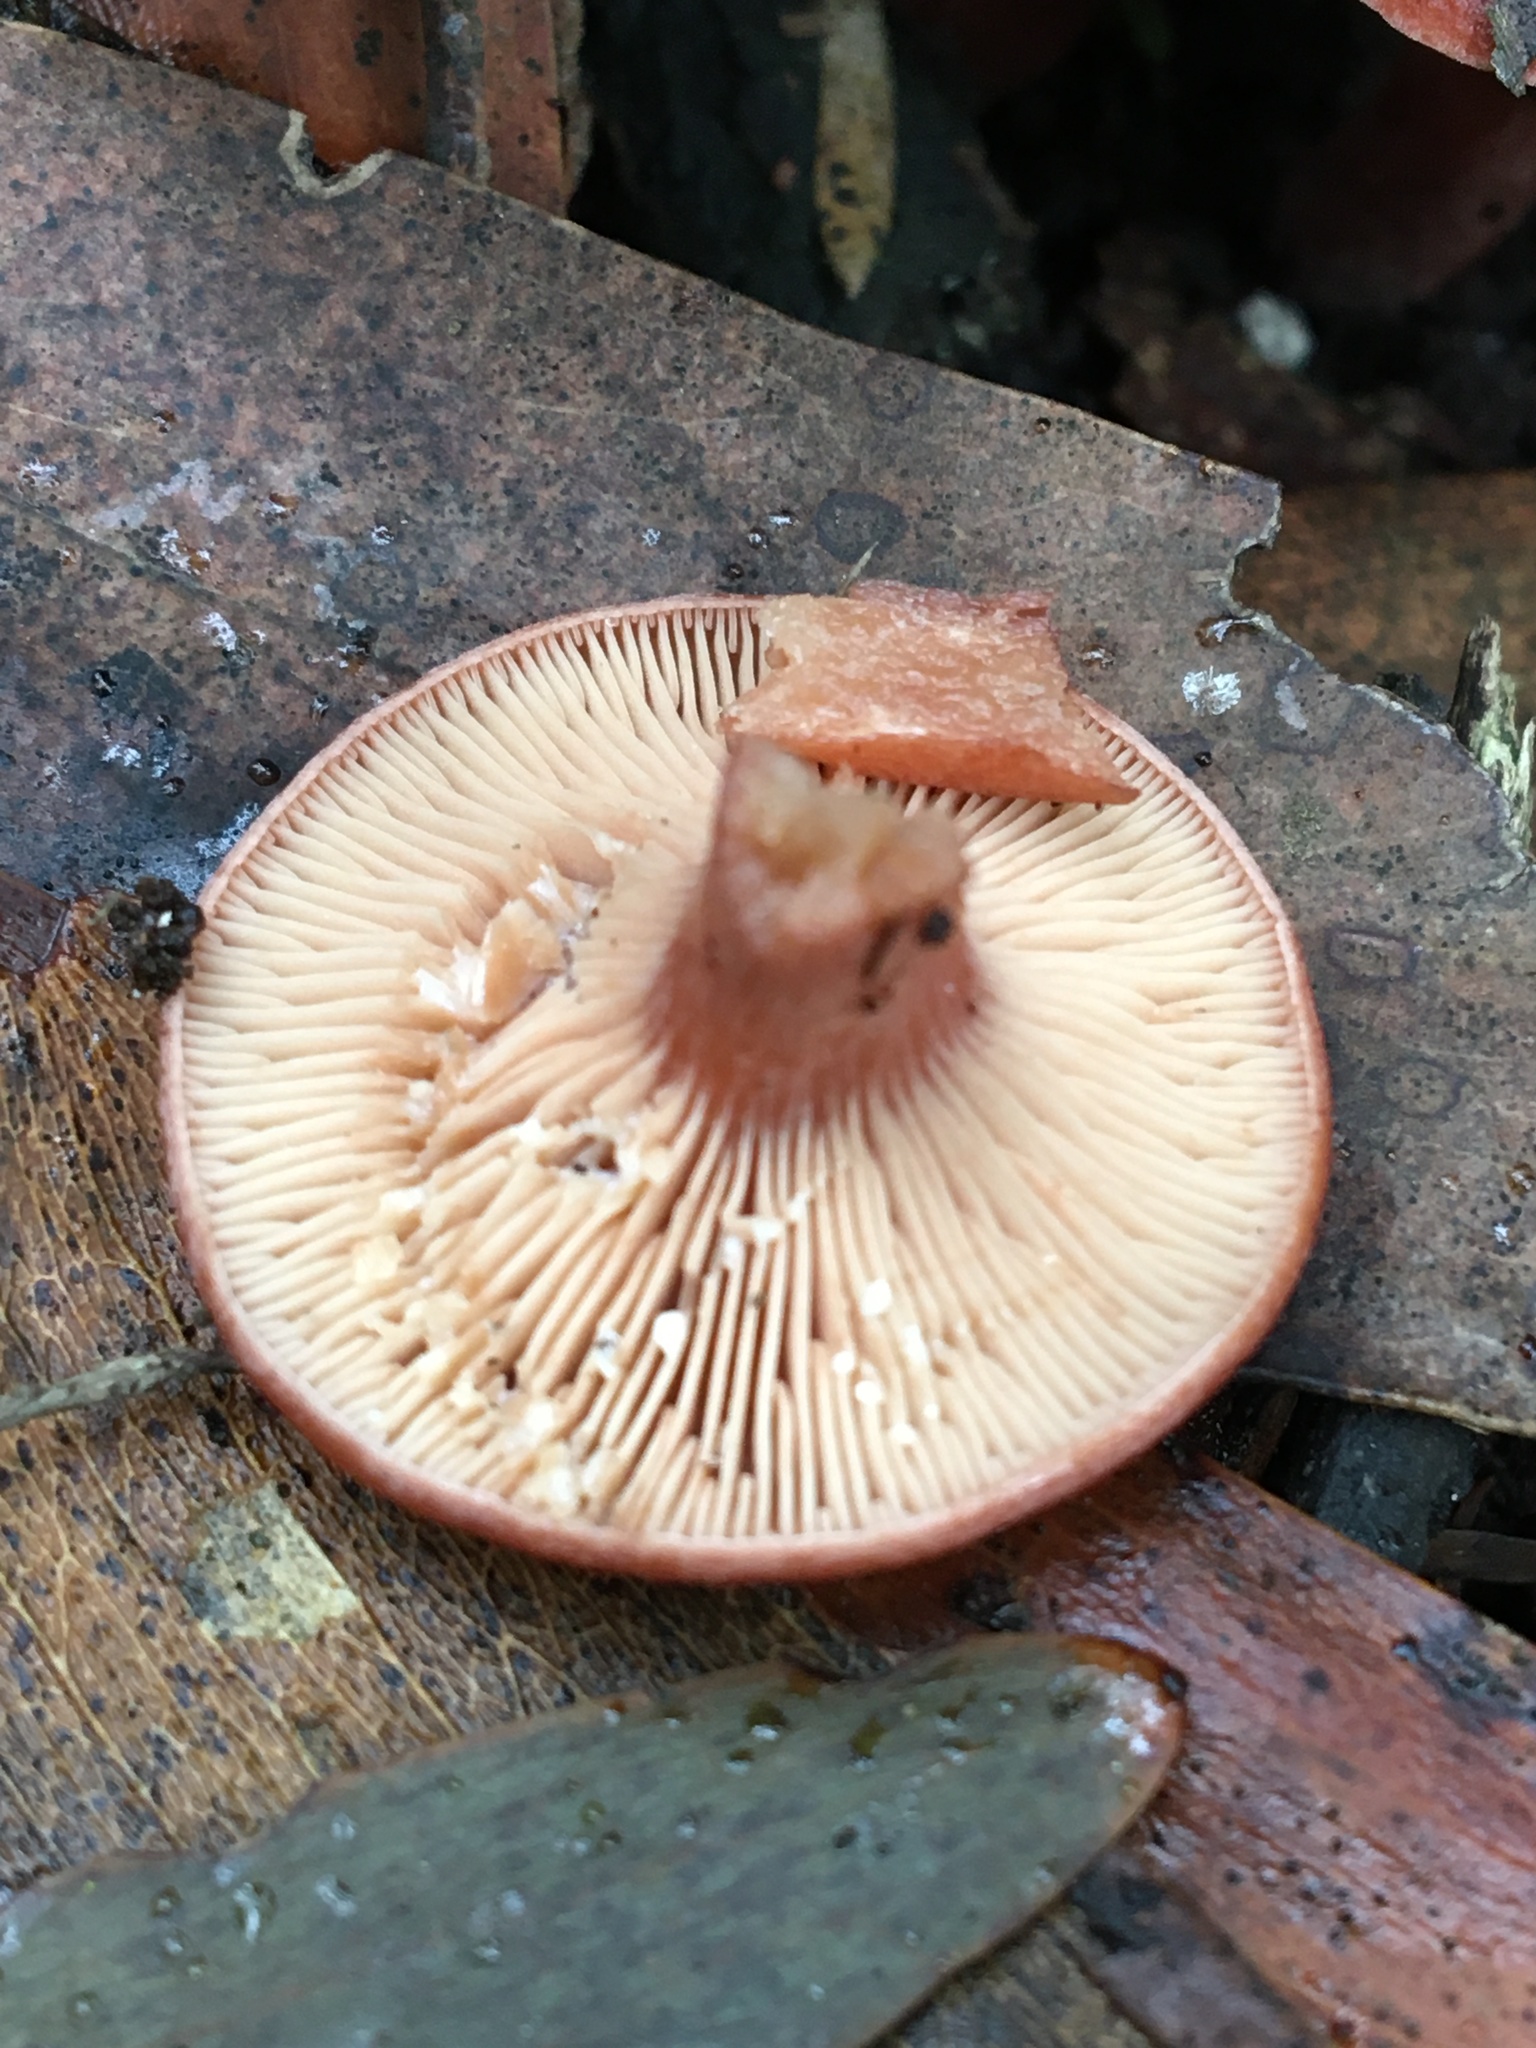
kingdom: Fungi
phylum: Basidiomycota
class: Agaricomycetes
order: Russulales
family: Russulaceae
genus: Lactarius
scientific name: Lactarius eucalypti
